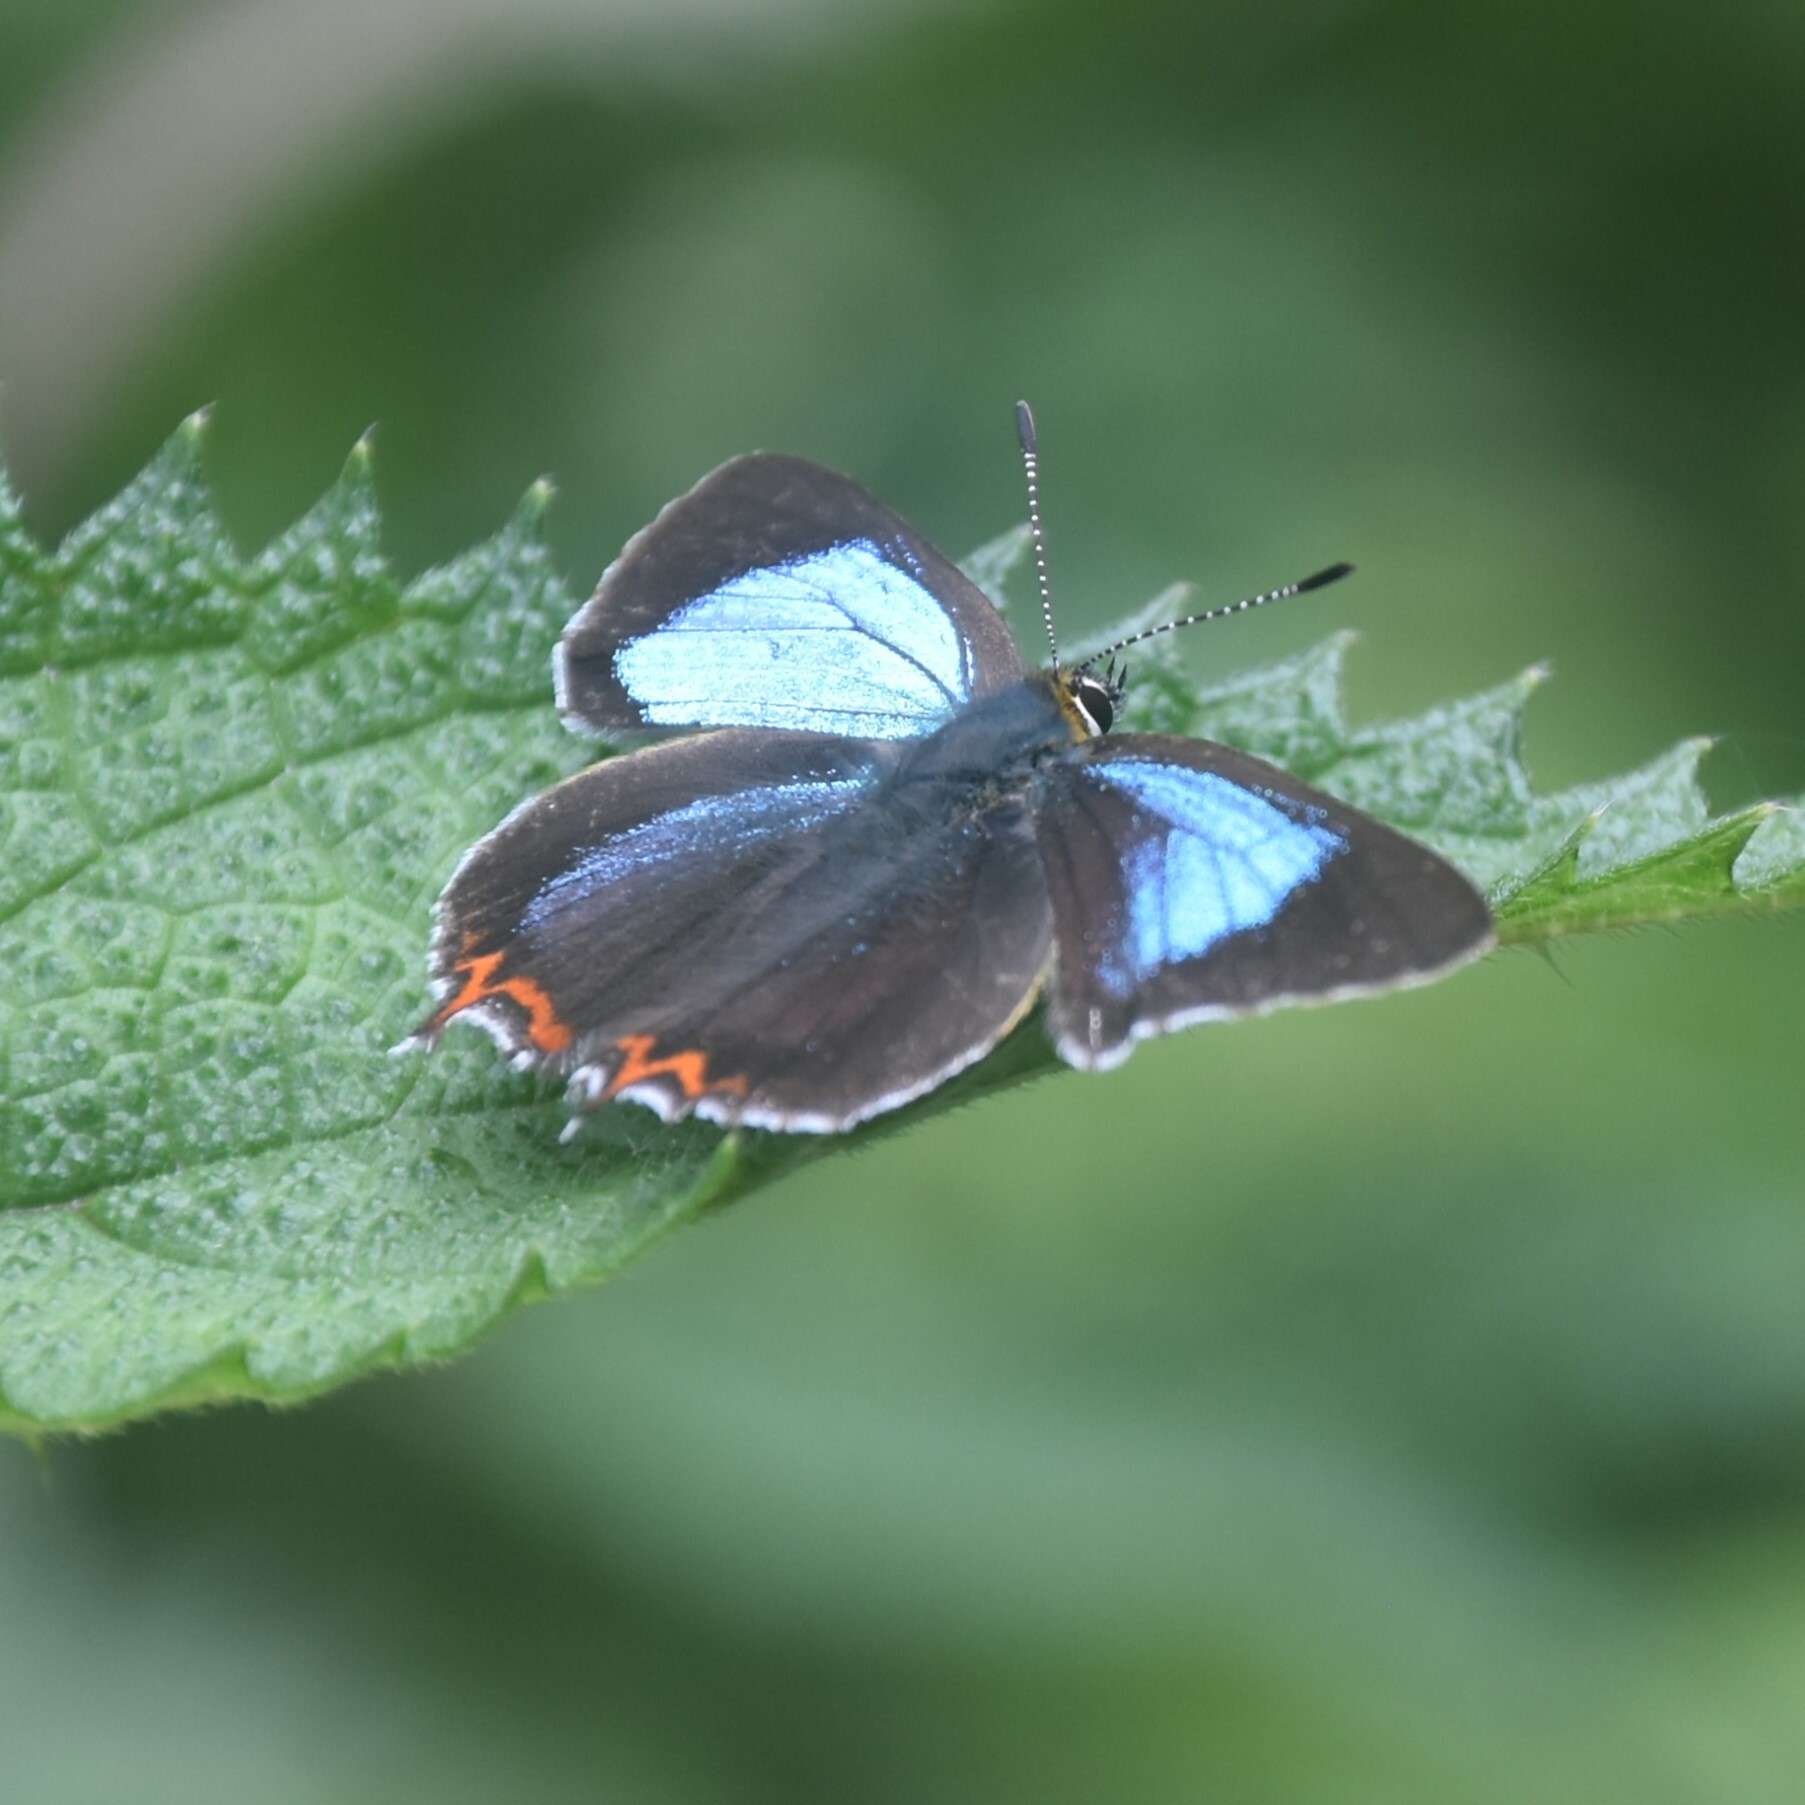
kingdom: Animalia
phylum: Arthropoda
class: Insecta
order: Lepidoptera
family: Lycaenidae
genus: Heliophorus
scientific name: Heliophorus
